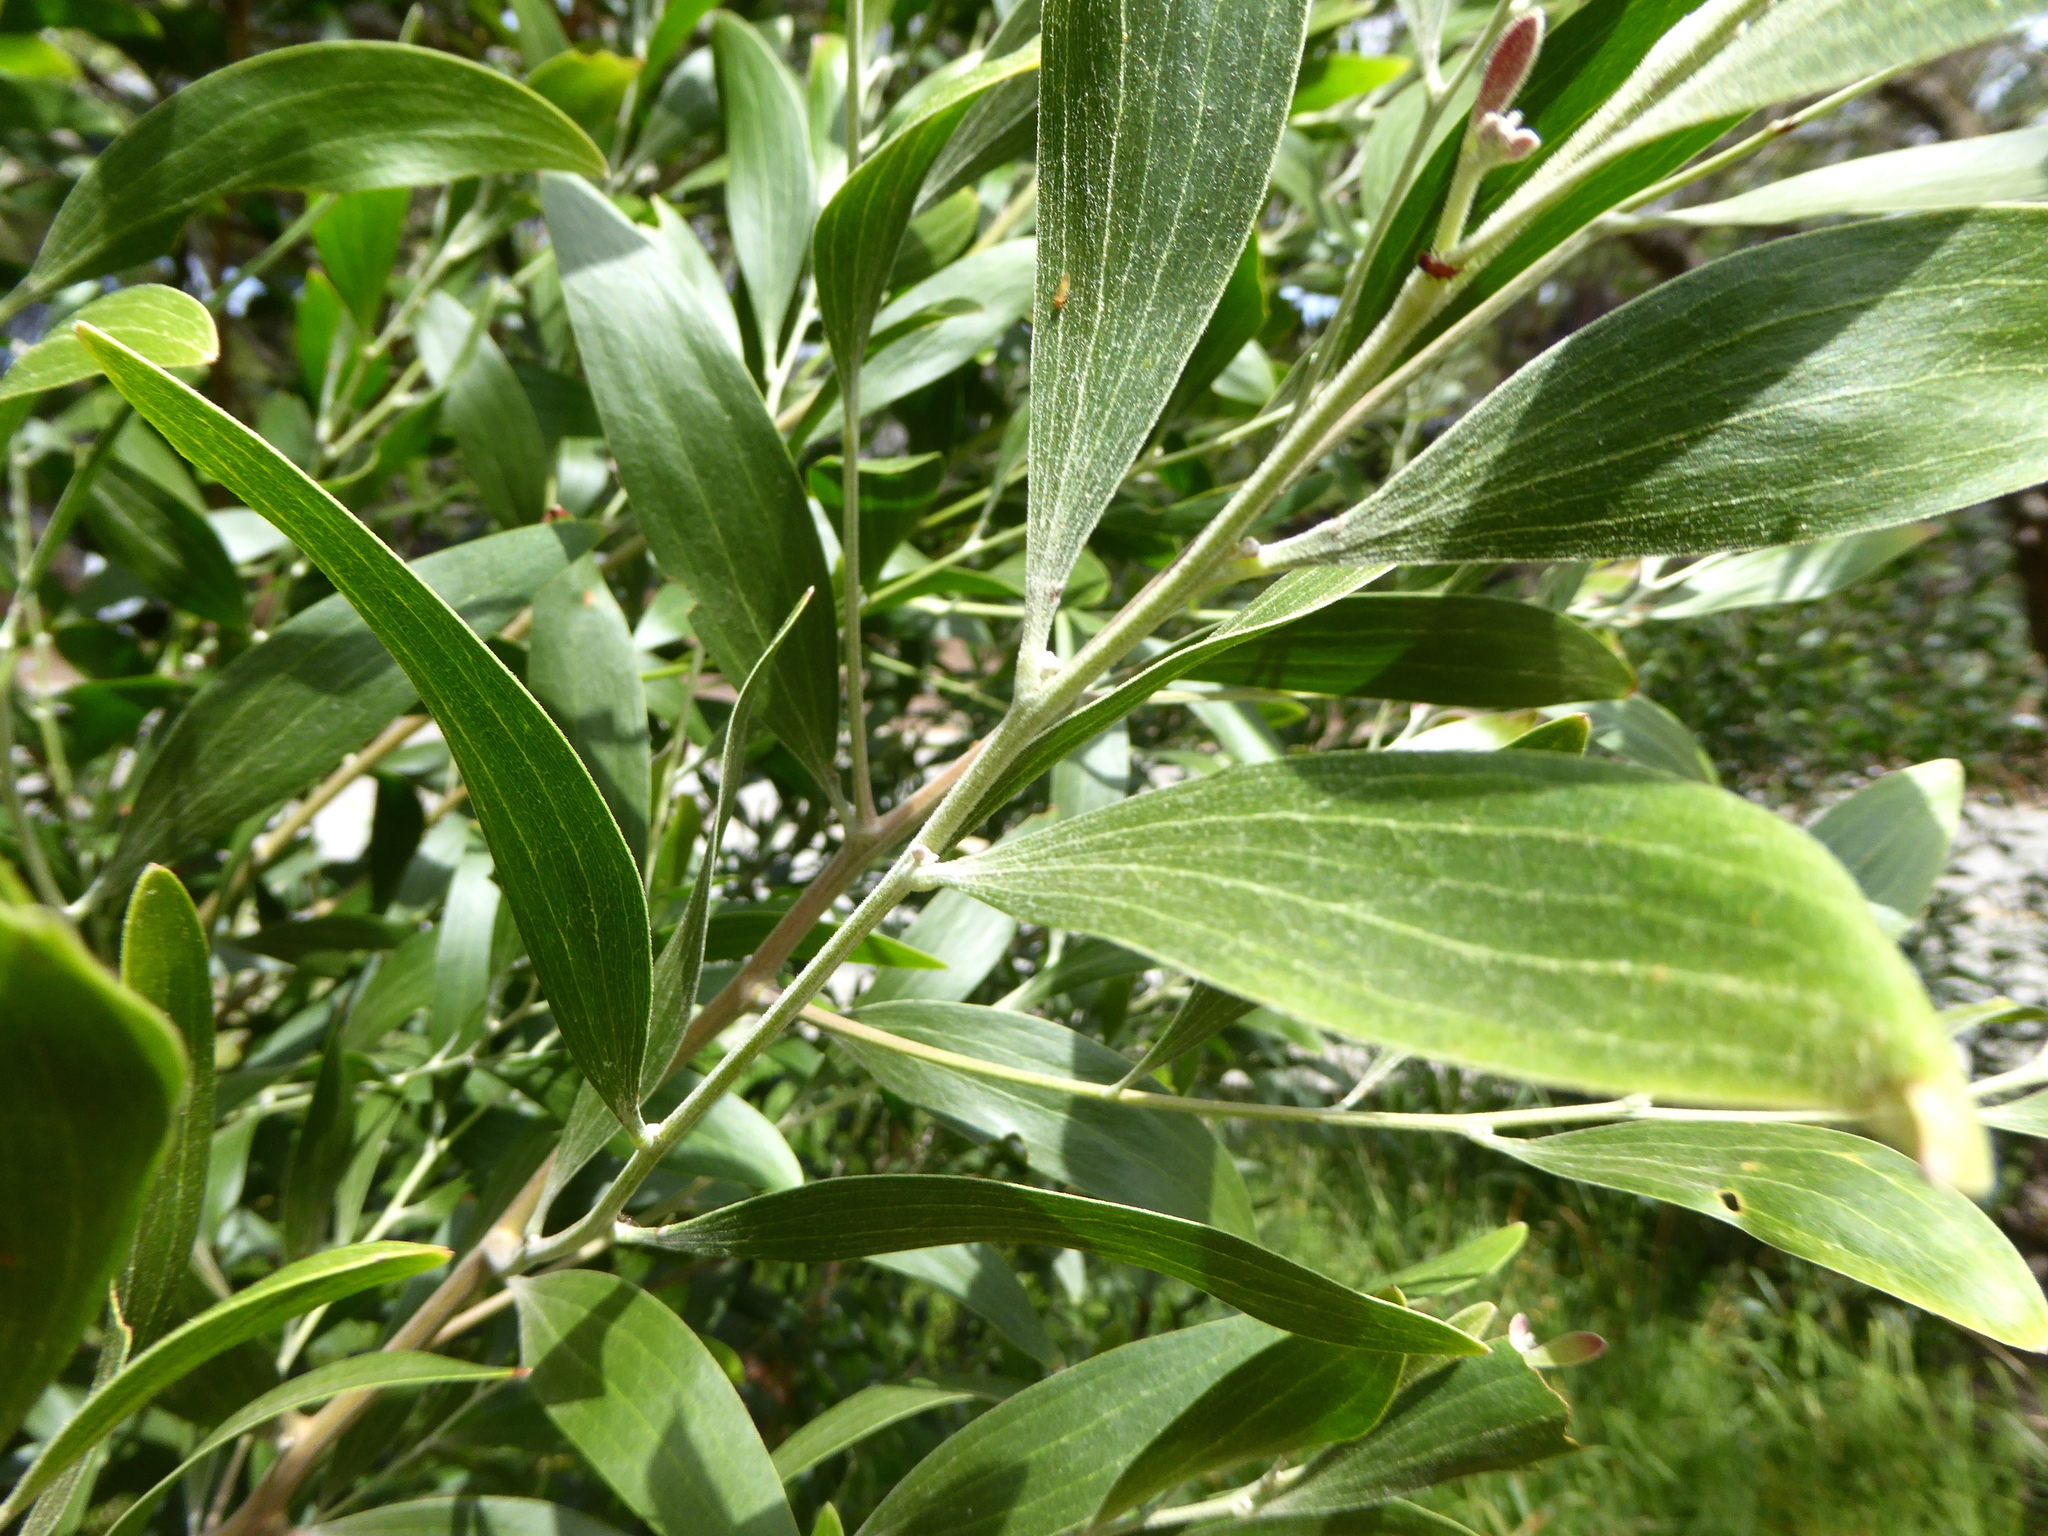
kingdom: Plantae
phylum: Tracheophyta
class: Magnoliopsida
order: Fabales
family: Fabaceae
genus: Acacia
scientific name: Acacia melanoxylon
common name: Blackwood
